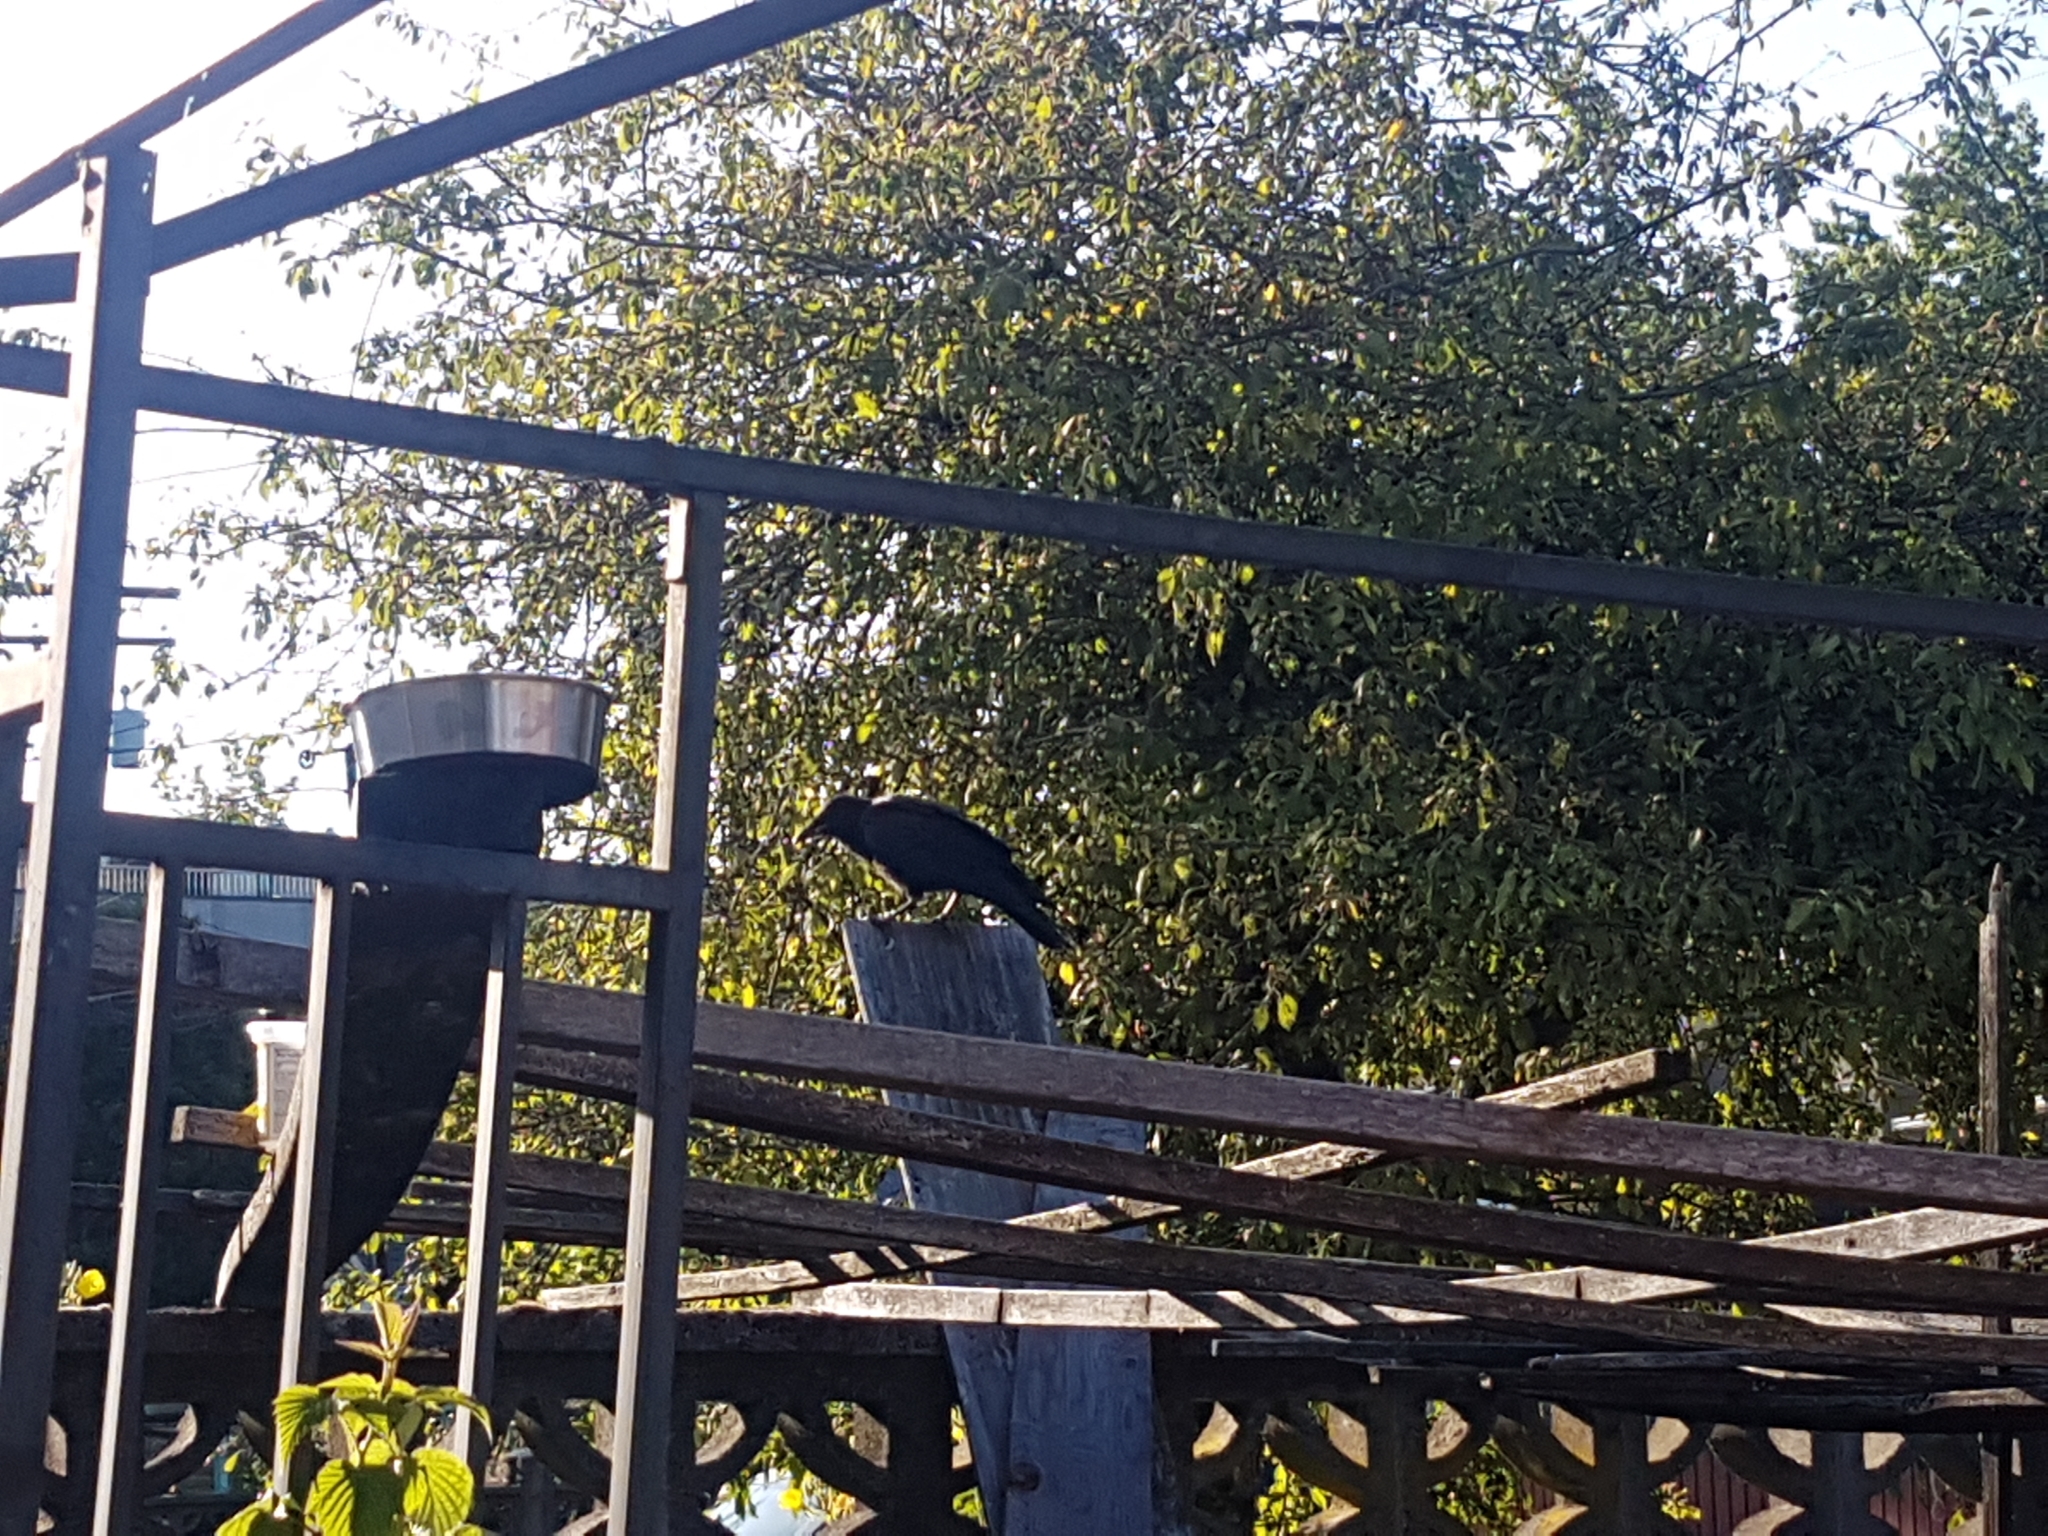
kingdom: Animalia
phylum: Chordata
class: Aves
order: Passeriformes
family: Corvidae
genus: Corvus
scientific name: Corvus brachyrhynchos
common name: American crow
